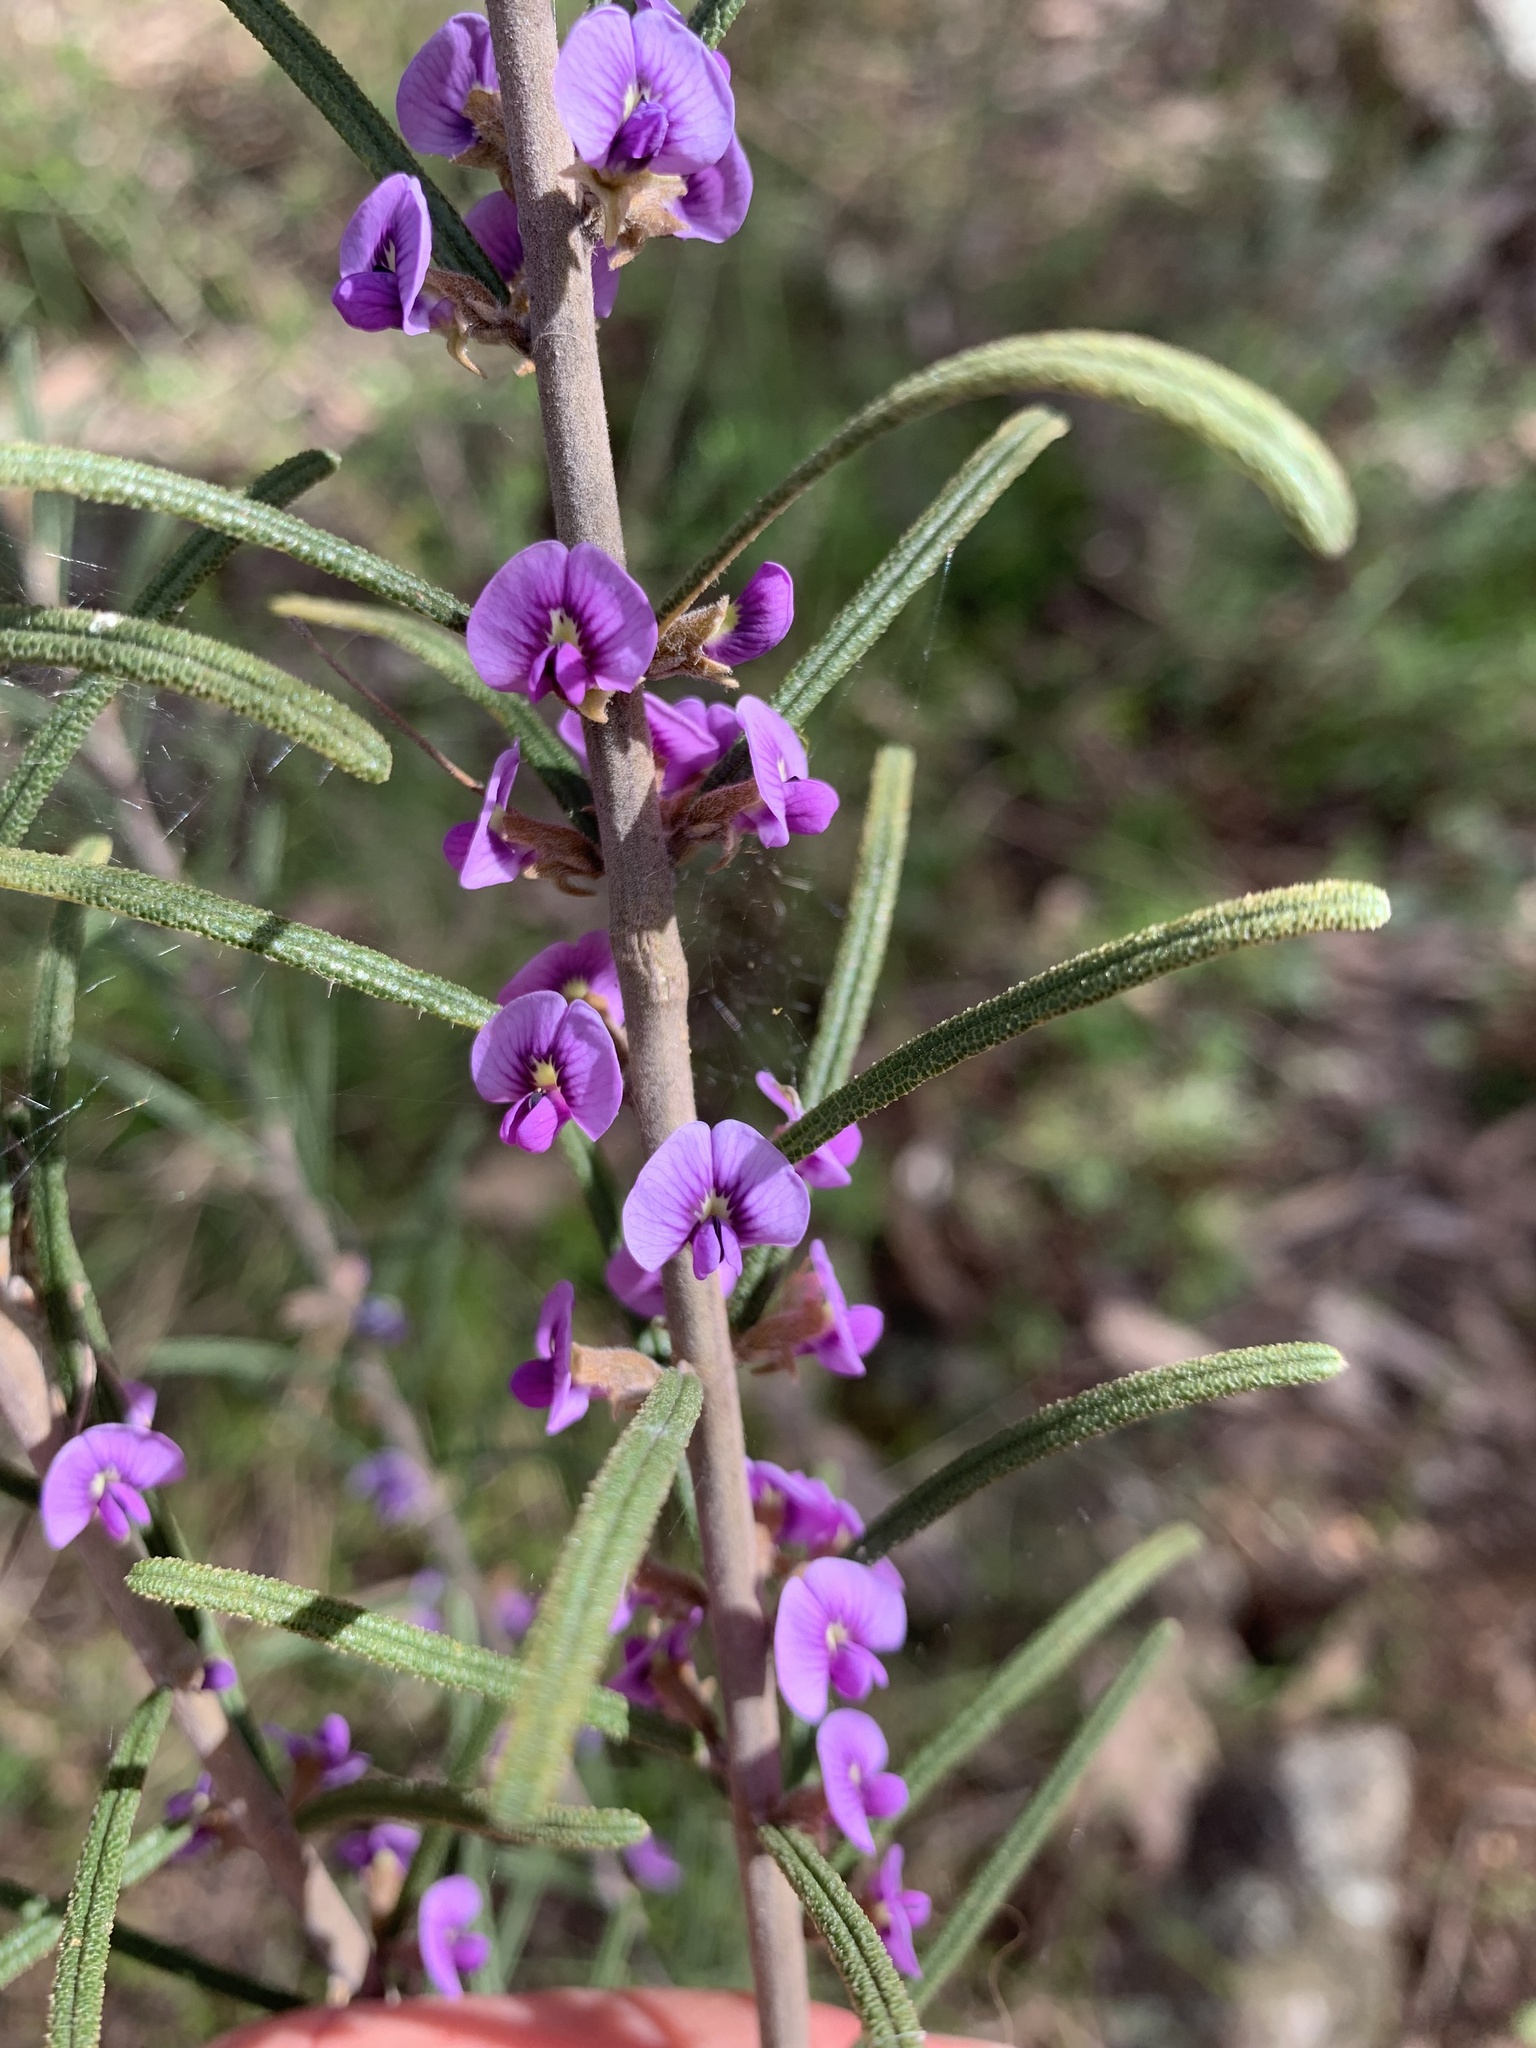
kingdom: Plantae
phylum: Tracheophyta
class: Magnoliopsida
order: Fabales
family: Fabaceae
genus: Hovea
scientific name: Hovea linearis
